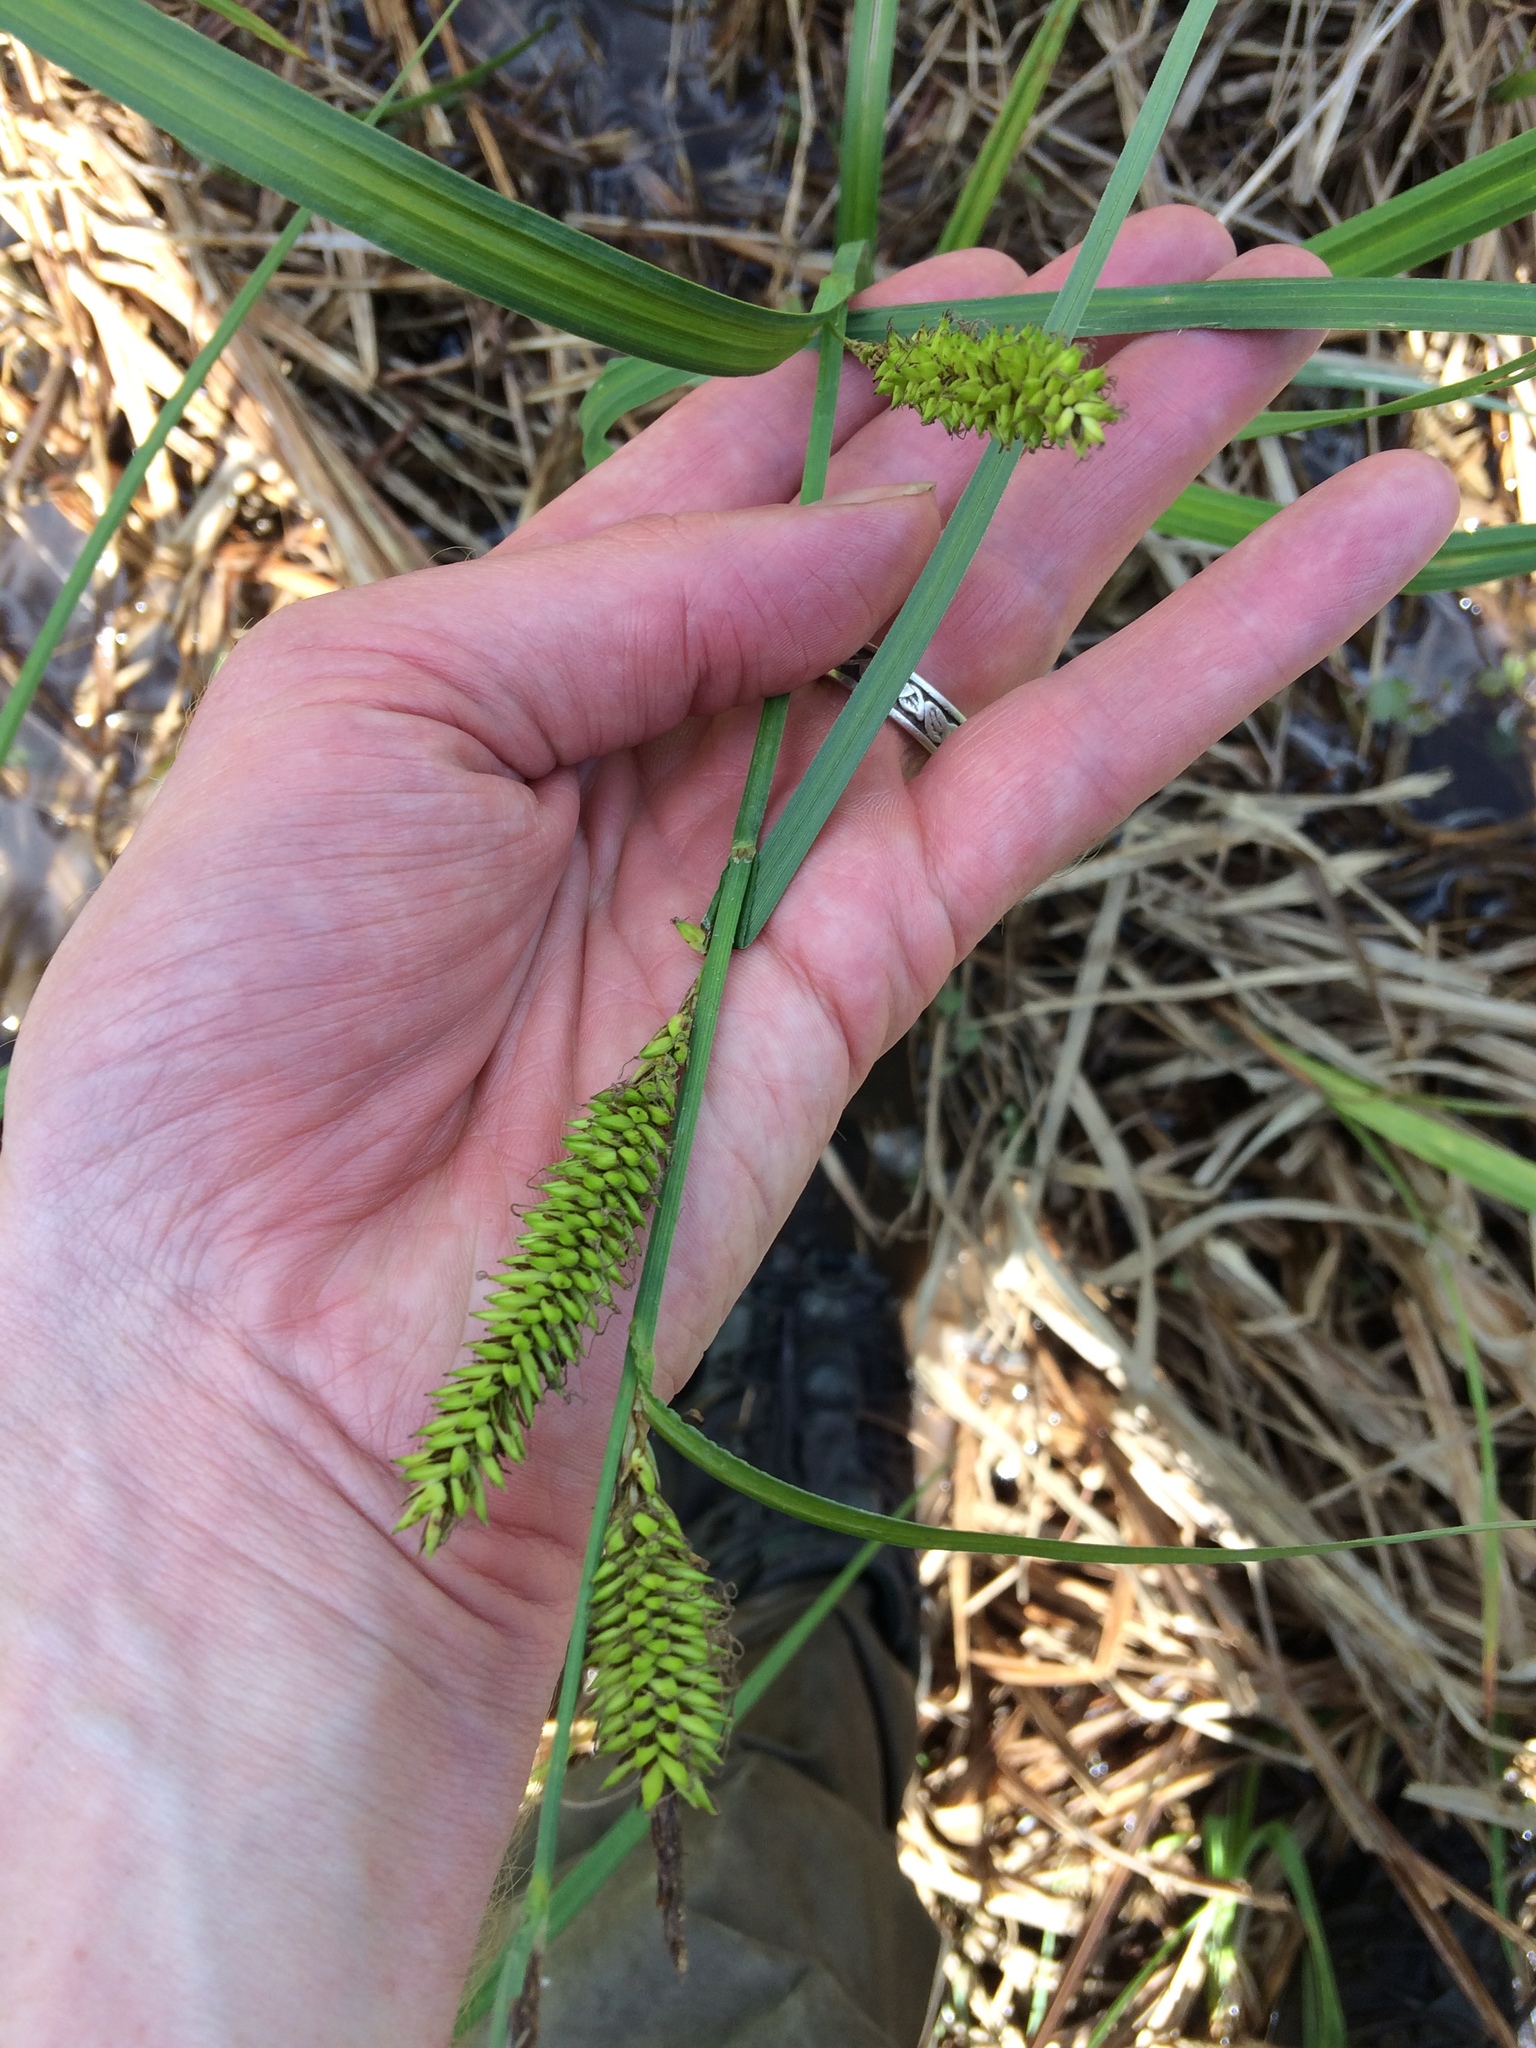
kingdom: Plantae
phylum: Tracheophyta
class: Liliopsida
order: Poales
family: Cyperaceae
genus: Carex
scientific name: Carex lacustris
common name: Common lake sedge
